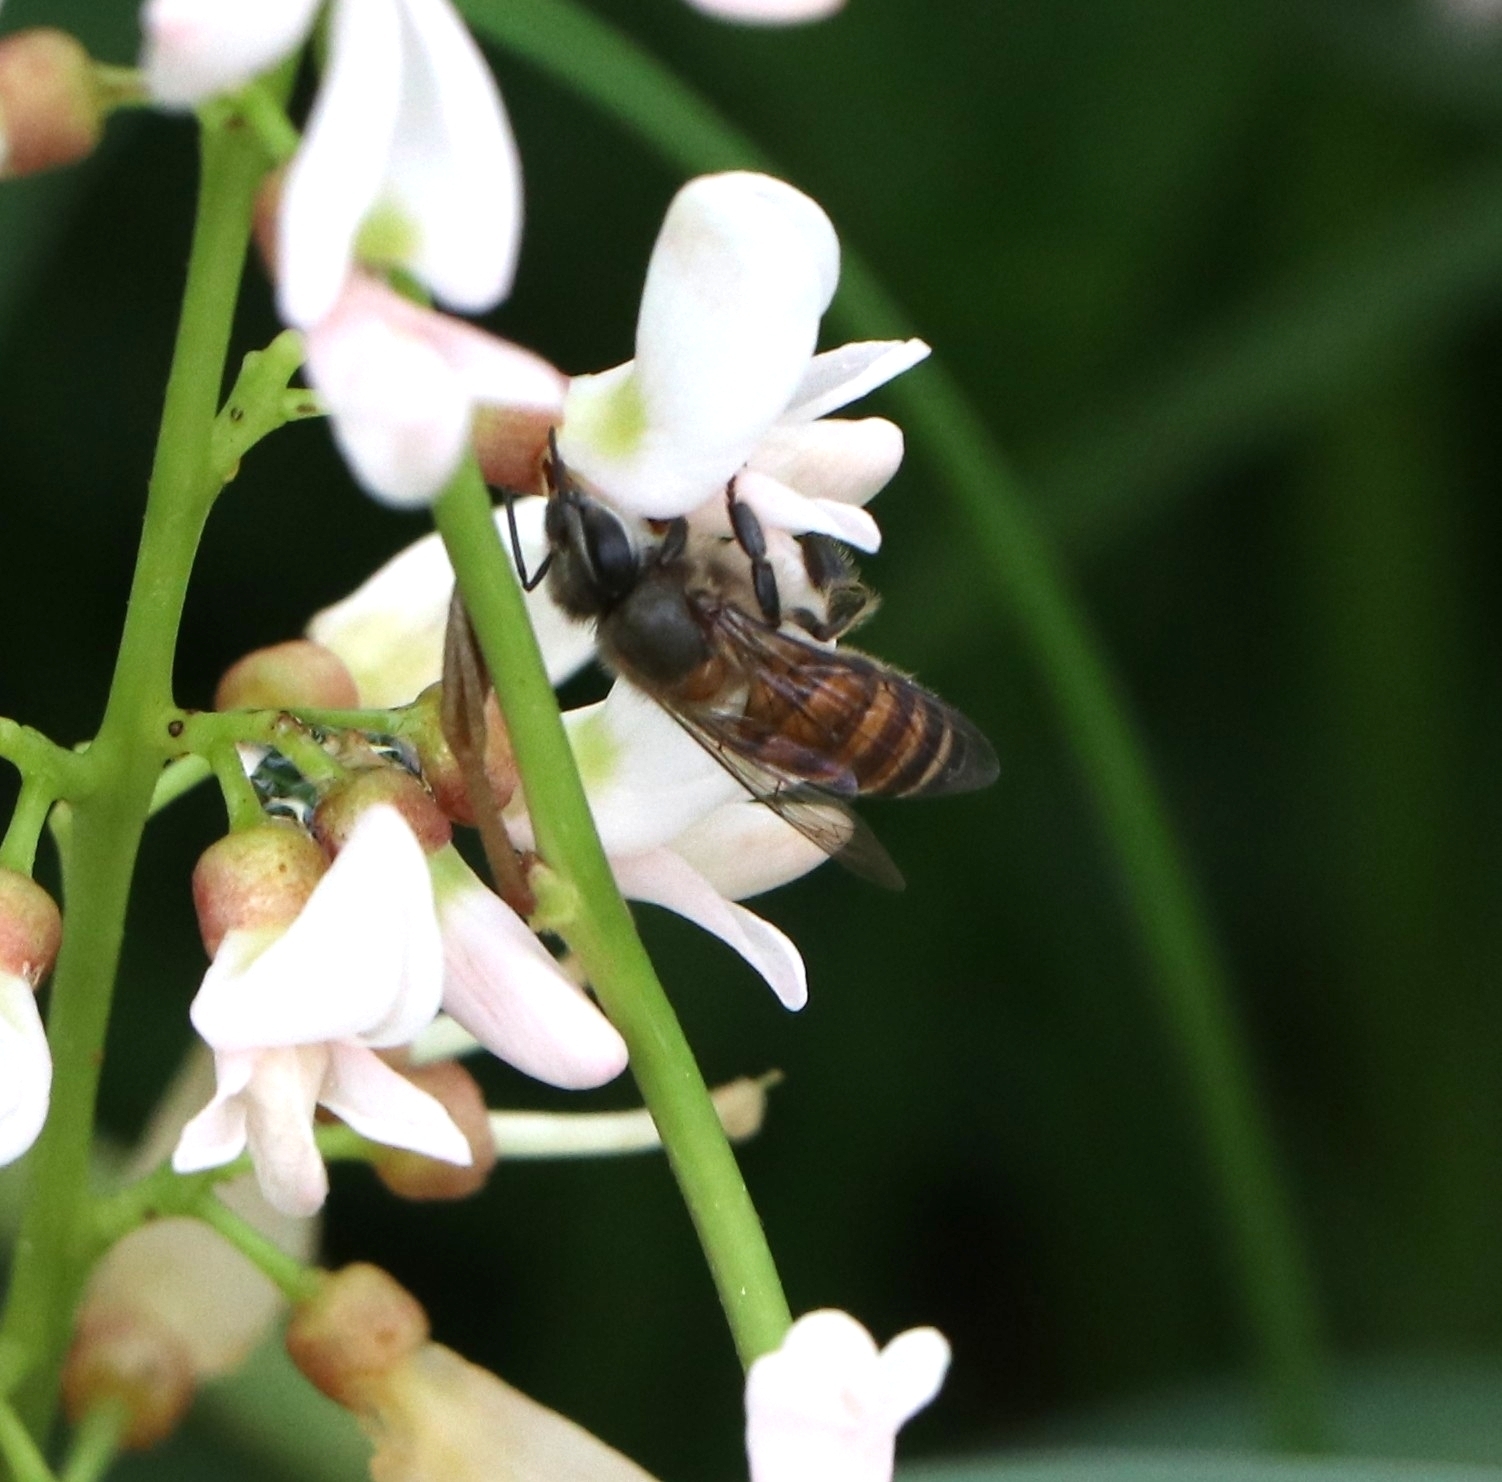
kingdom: Animalia
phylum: Arthropoda
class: Insecta
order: Hymenoptera
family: Apidae
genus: Apis
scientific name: Apis cerana
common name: Honey bee
